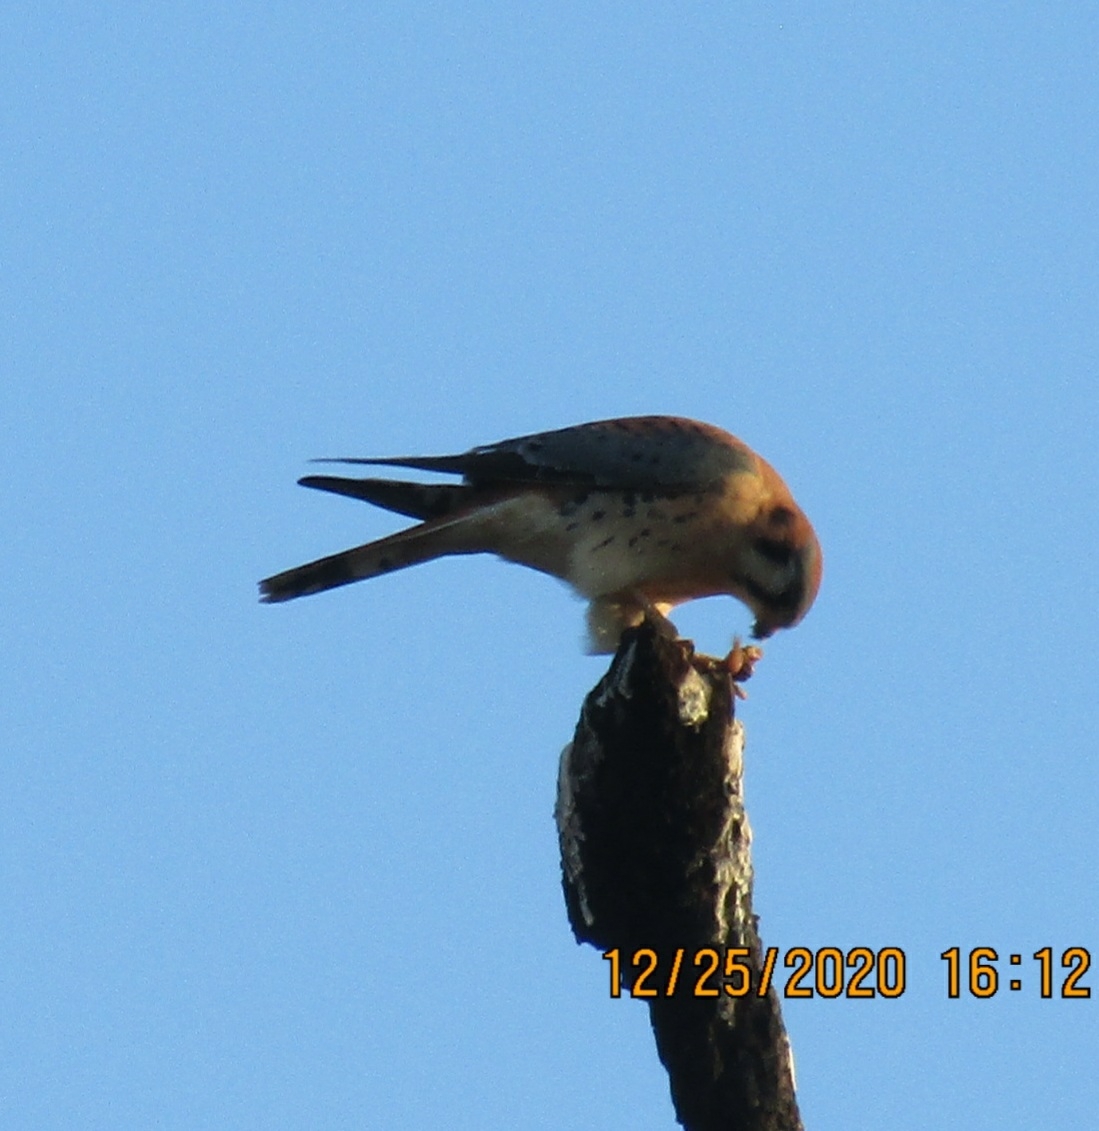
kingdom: Animalia
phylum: Chordata
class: Aves
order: Falconiformes
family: Falconidae
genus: Falco
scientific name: Falco sparverius
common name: American kestrel
